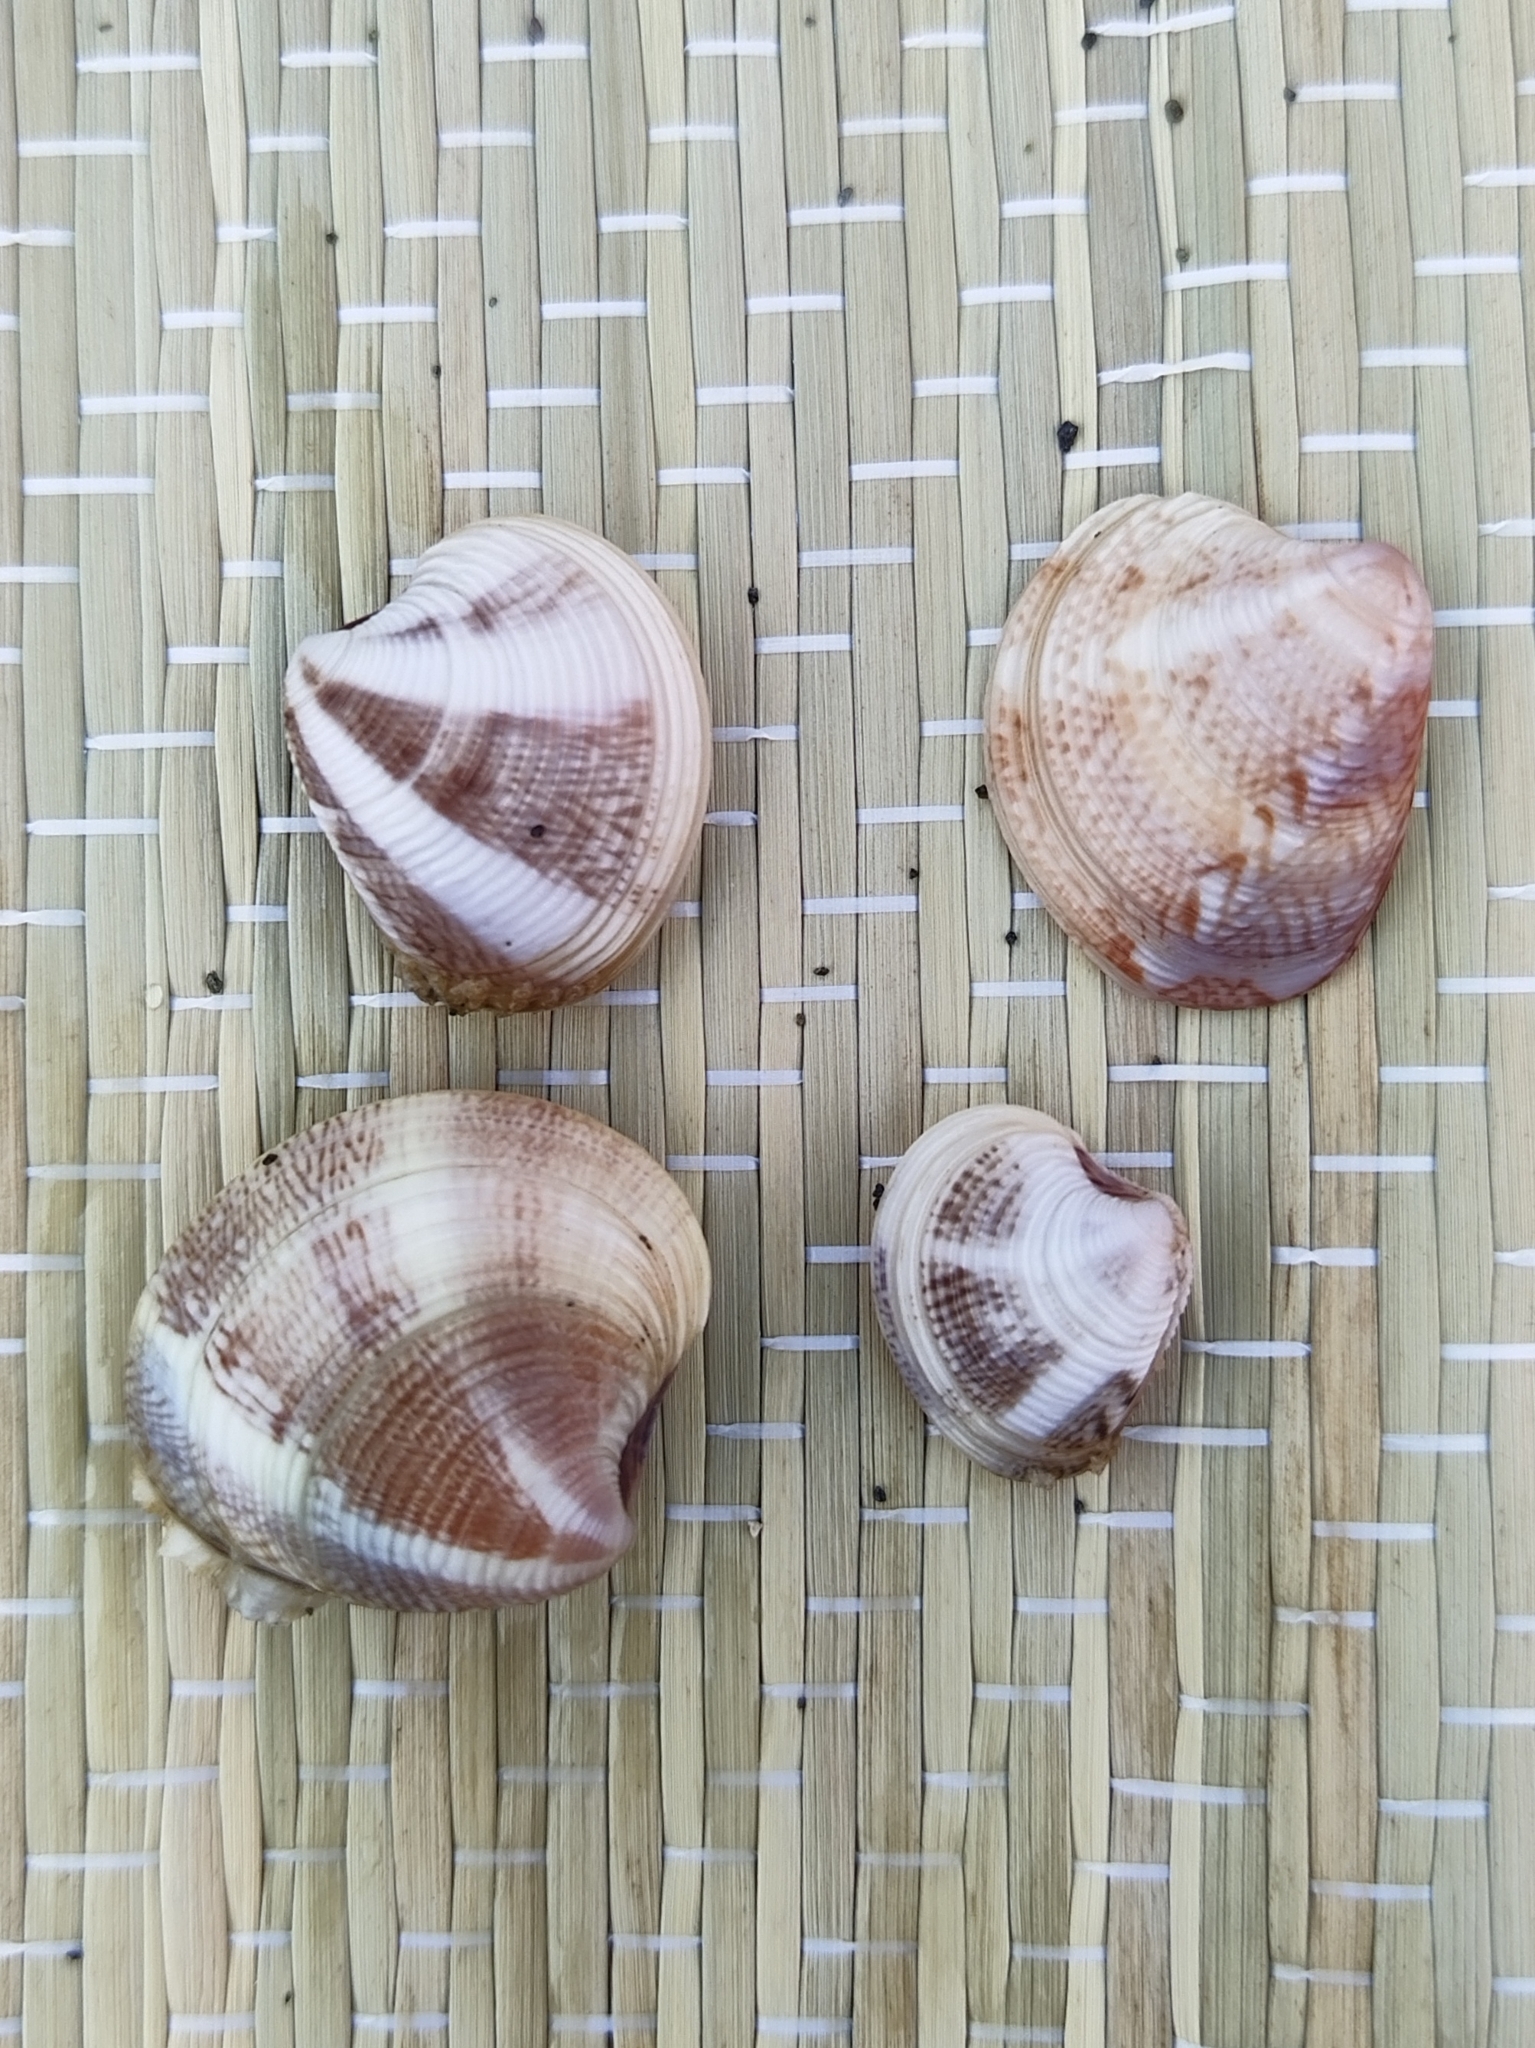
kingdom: Animalia
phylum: Mollusca
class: Bivalvia
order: Venerida
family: Veneridae
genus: Chamelea
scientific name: Chamelea gallina
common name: Chicken venus
